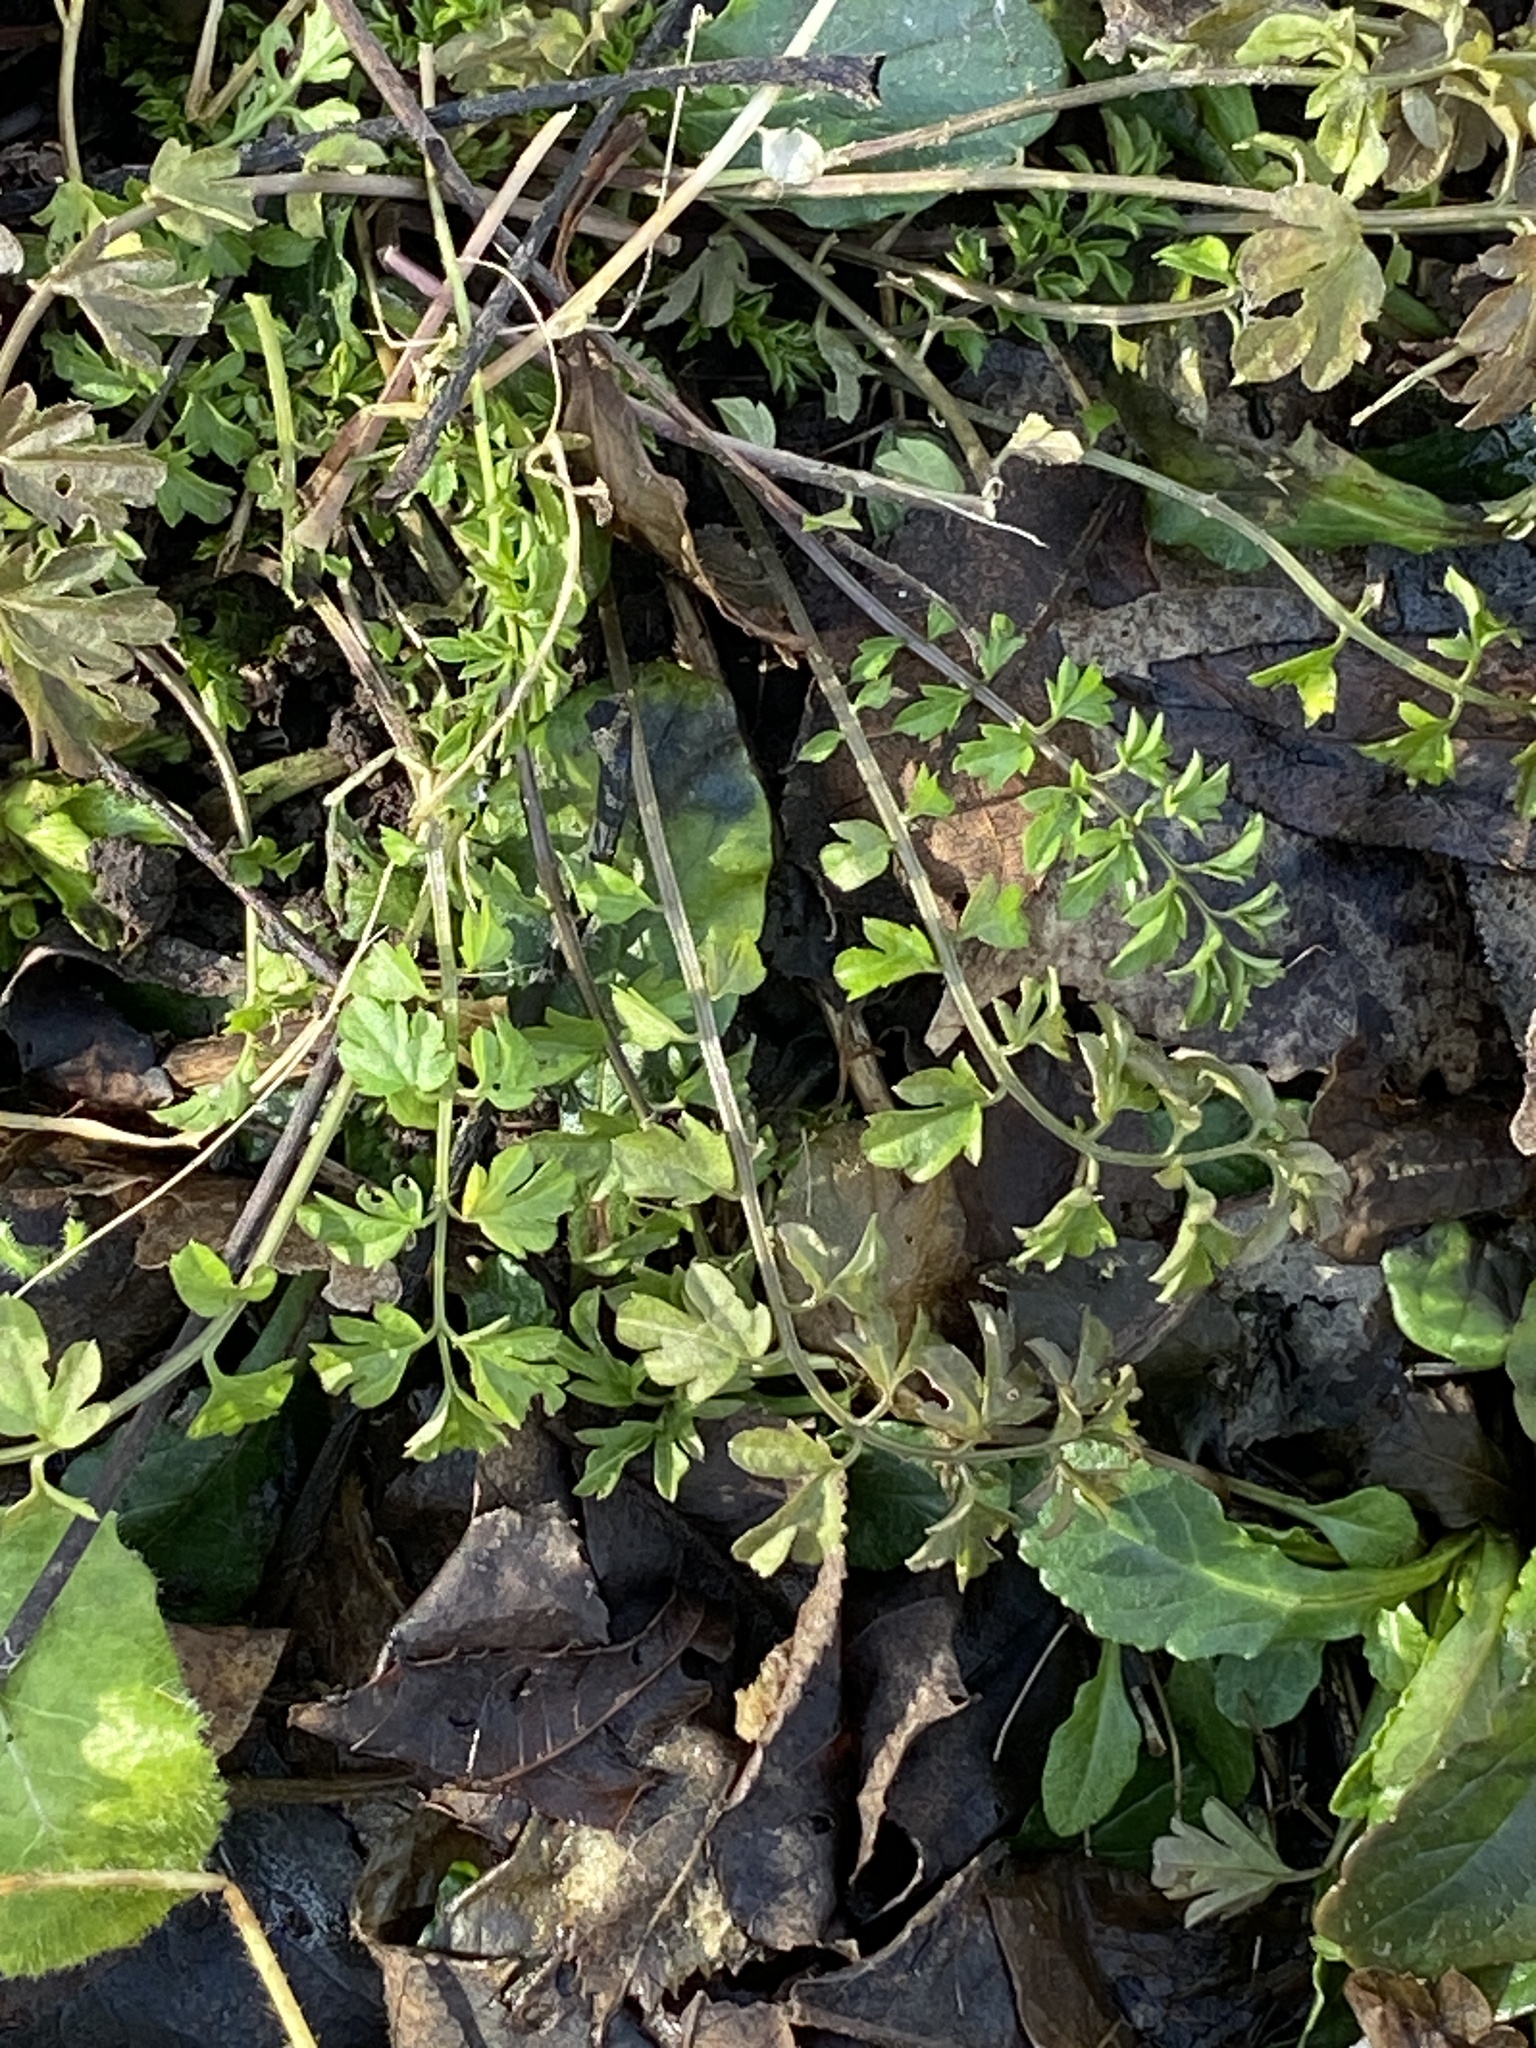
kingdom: Plantae
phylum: Tracheophyta
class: Magnoliopsida
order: Brassicales
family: Brassicaceae
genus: Cardamine
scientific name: Cardamine impatiens
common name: Narrow-leaved bitter-cress
